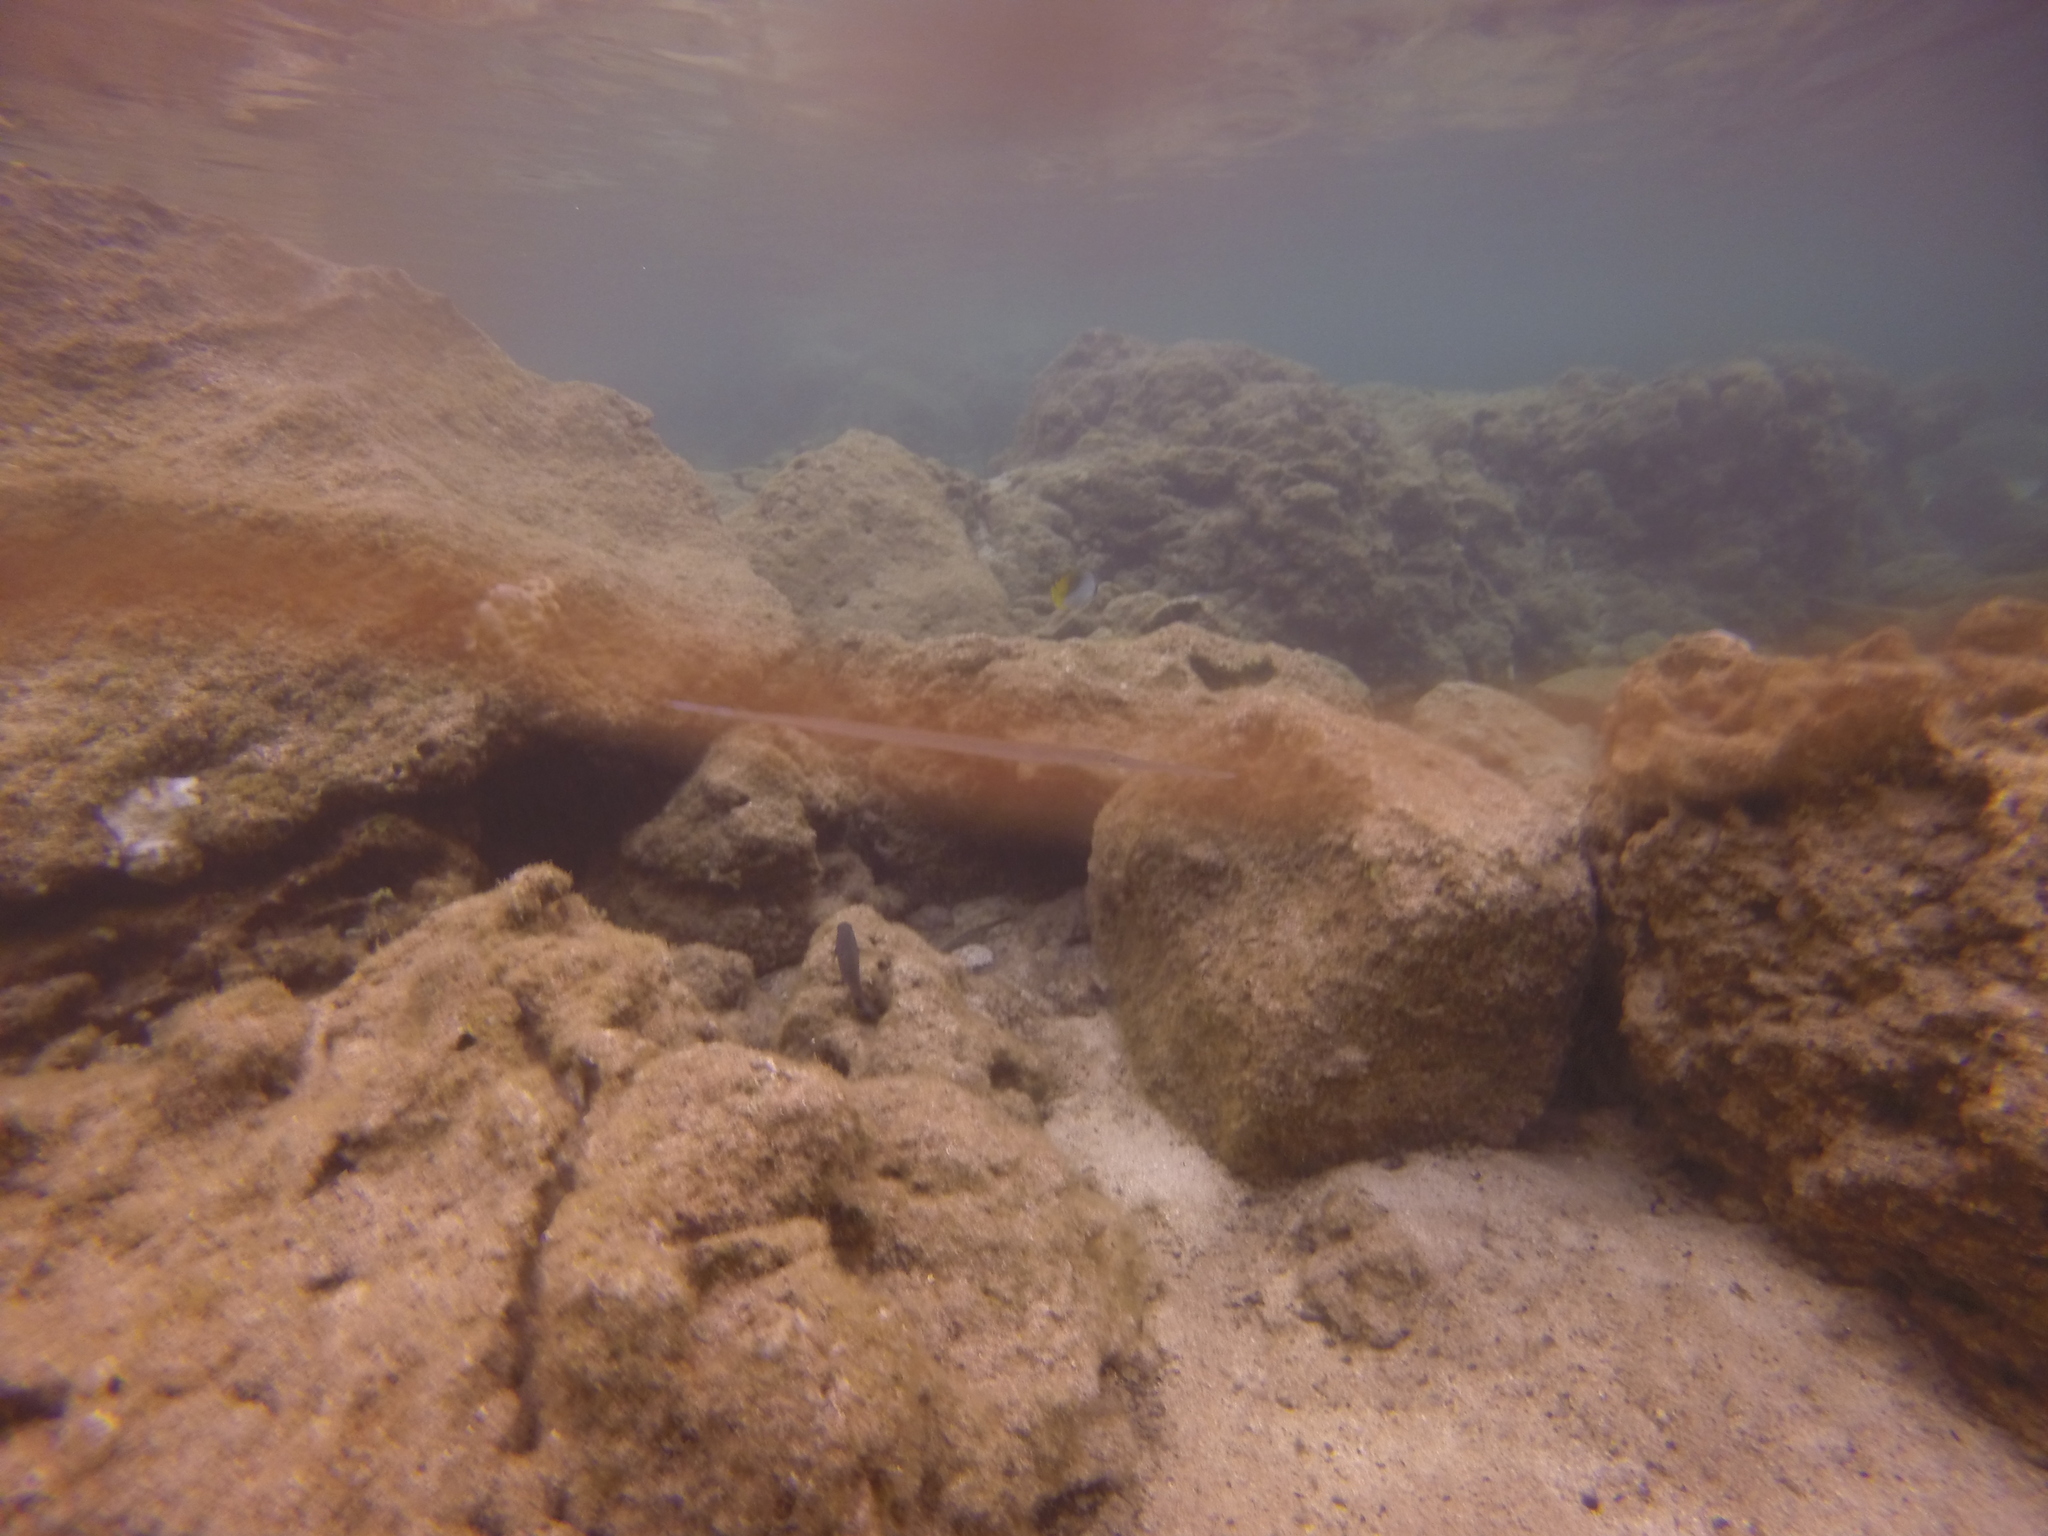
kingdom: Animalia
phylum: Chordata
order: Syngnathiformes
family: Fistulariidae
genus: Fistularia
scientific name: Fistularia commersonii
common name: Bluespotted cornetfish
